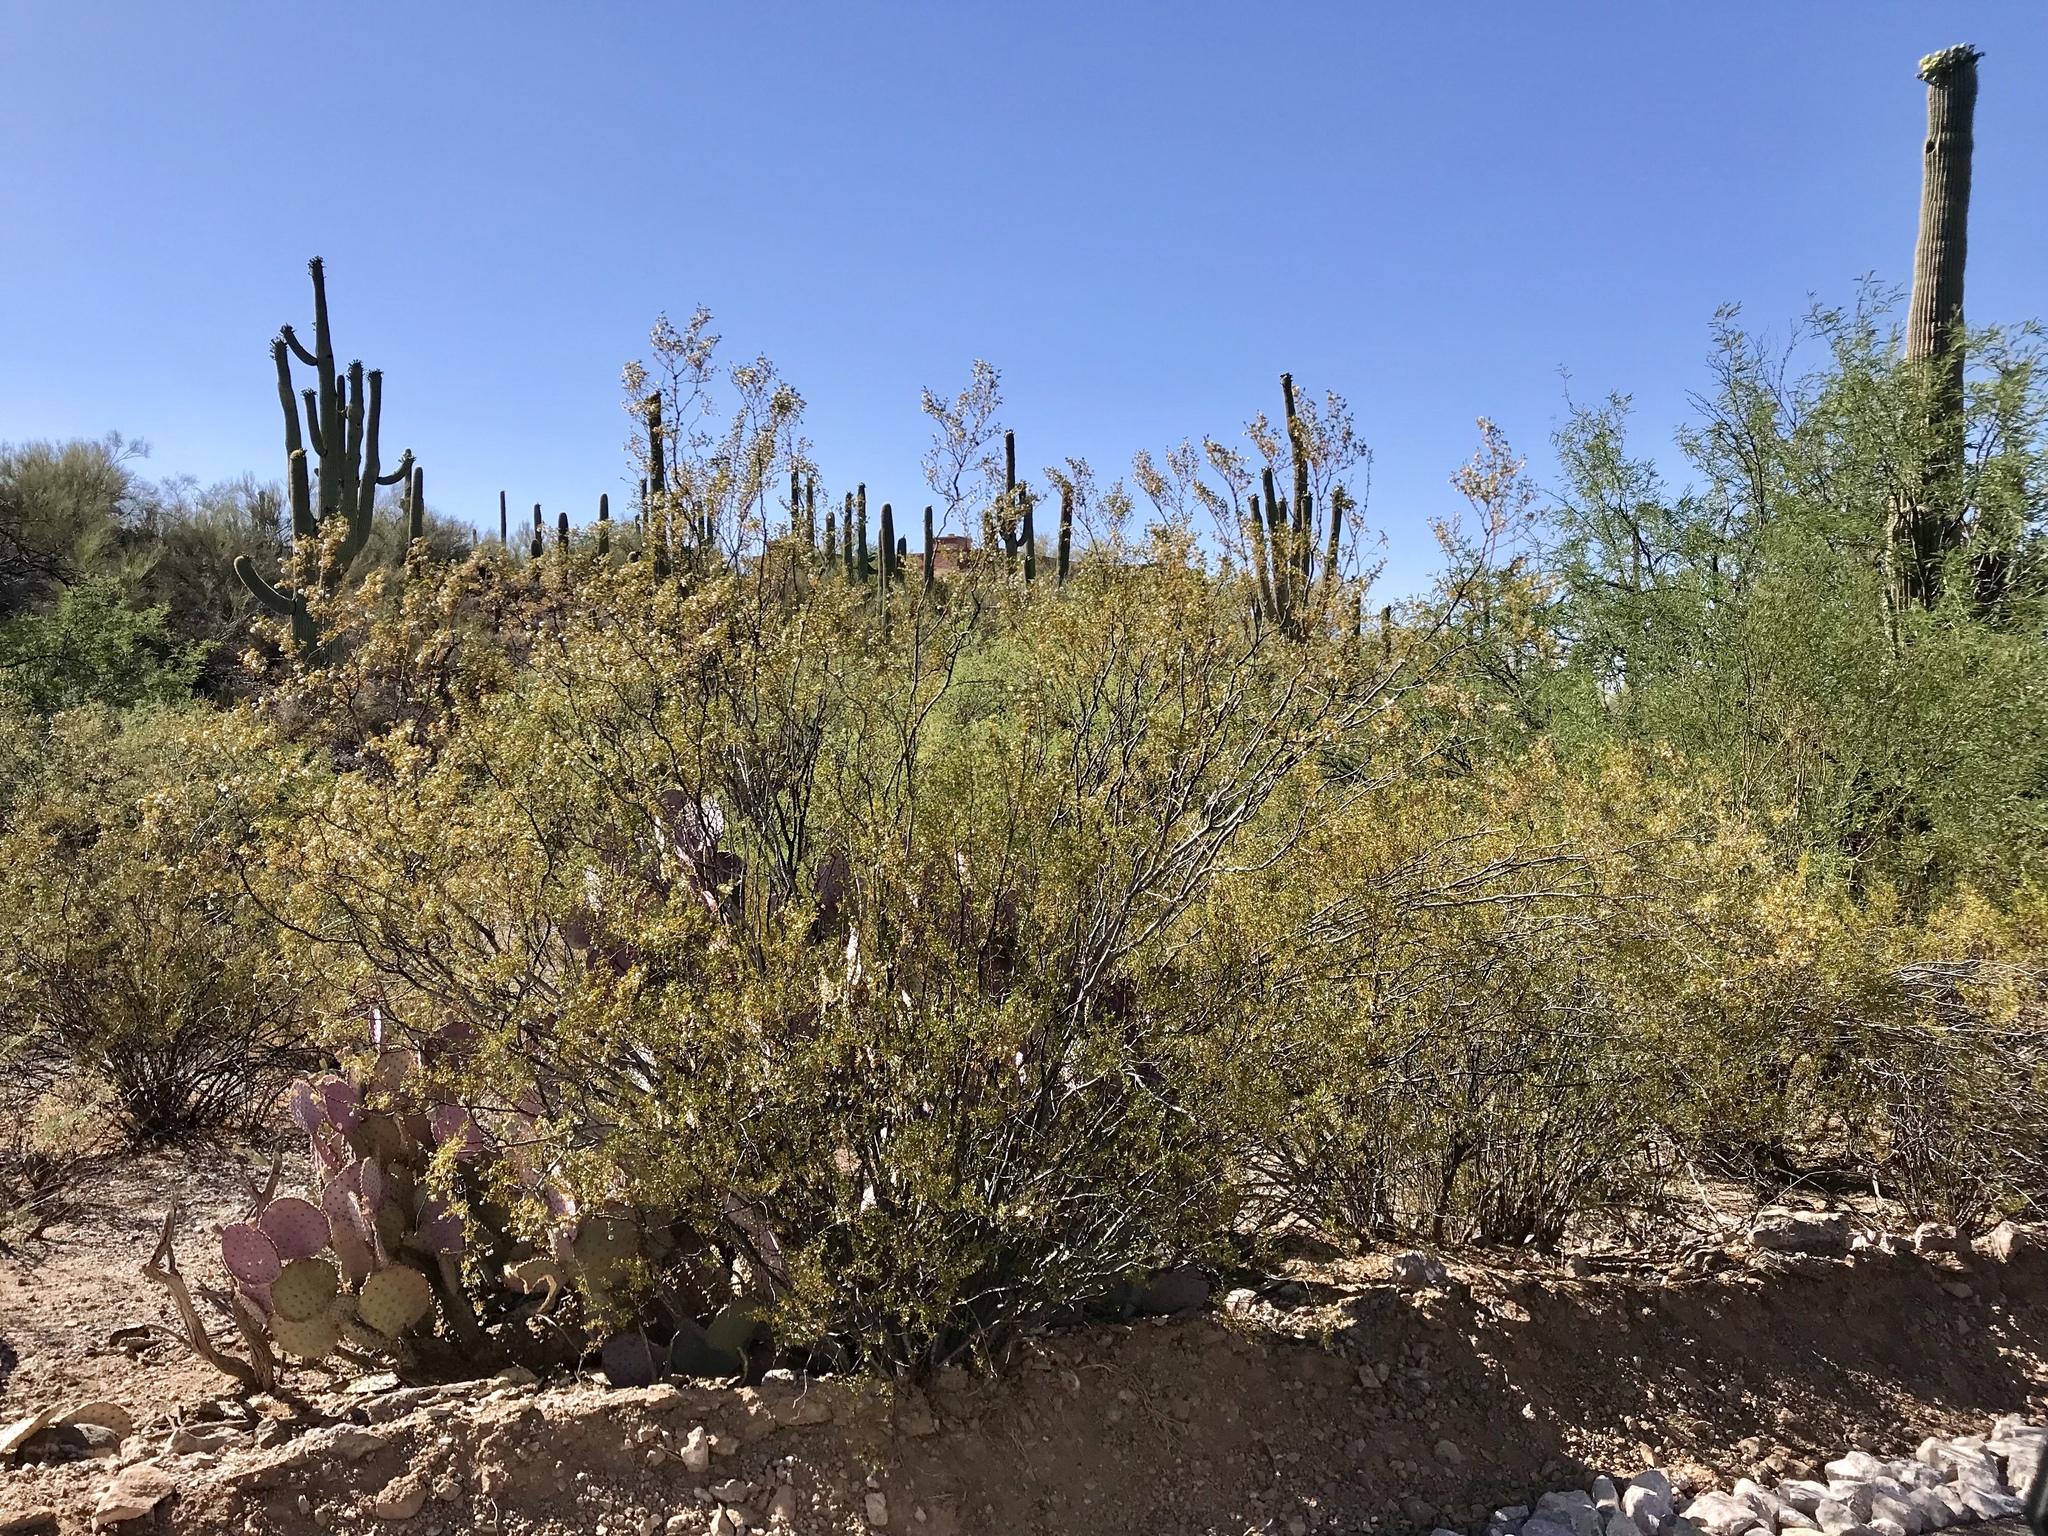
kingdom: Plantae
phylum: Tracheophyta
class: Magnoliopsida
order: Zygophyllales
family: Zygophyllaceae
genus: Larrea
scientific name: Larrea tridentata
